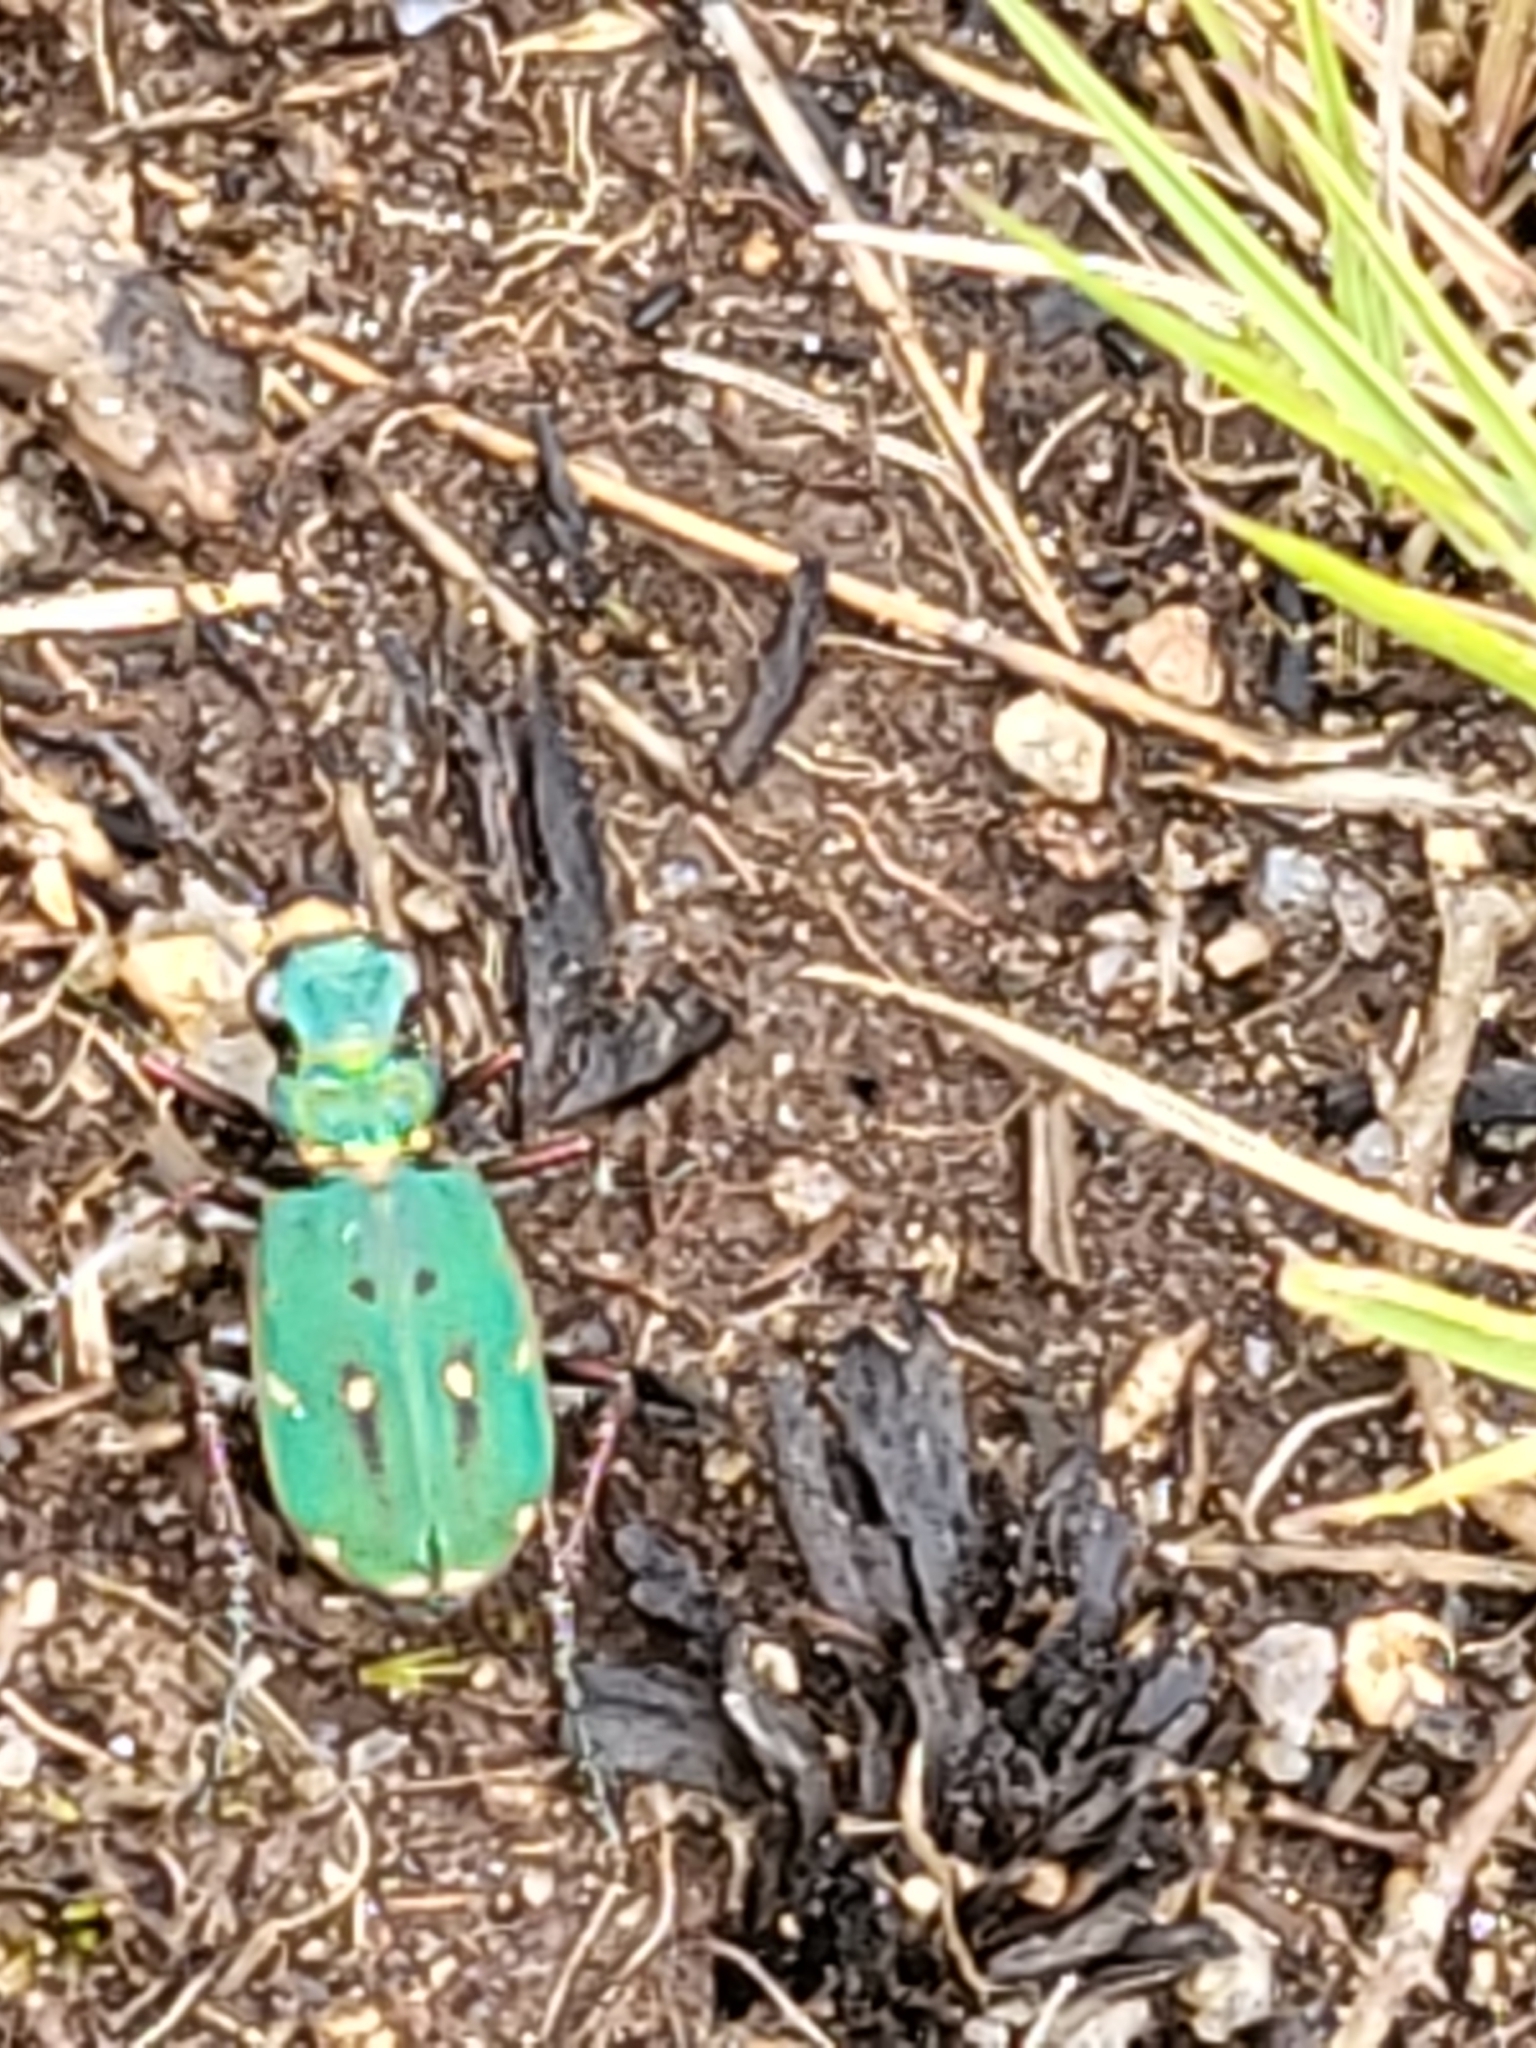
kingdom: Animalia
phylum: Arthropoda
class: Insecta
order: Coleoptera
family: Carabidae
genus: Cicindela
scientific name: Cicindela campestris
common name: Common tiger beetle
